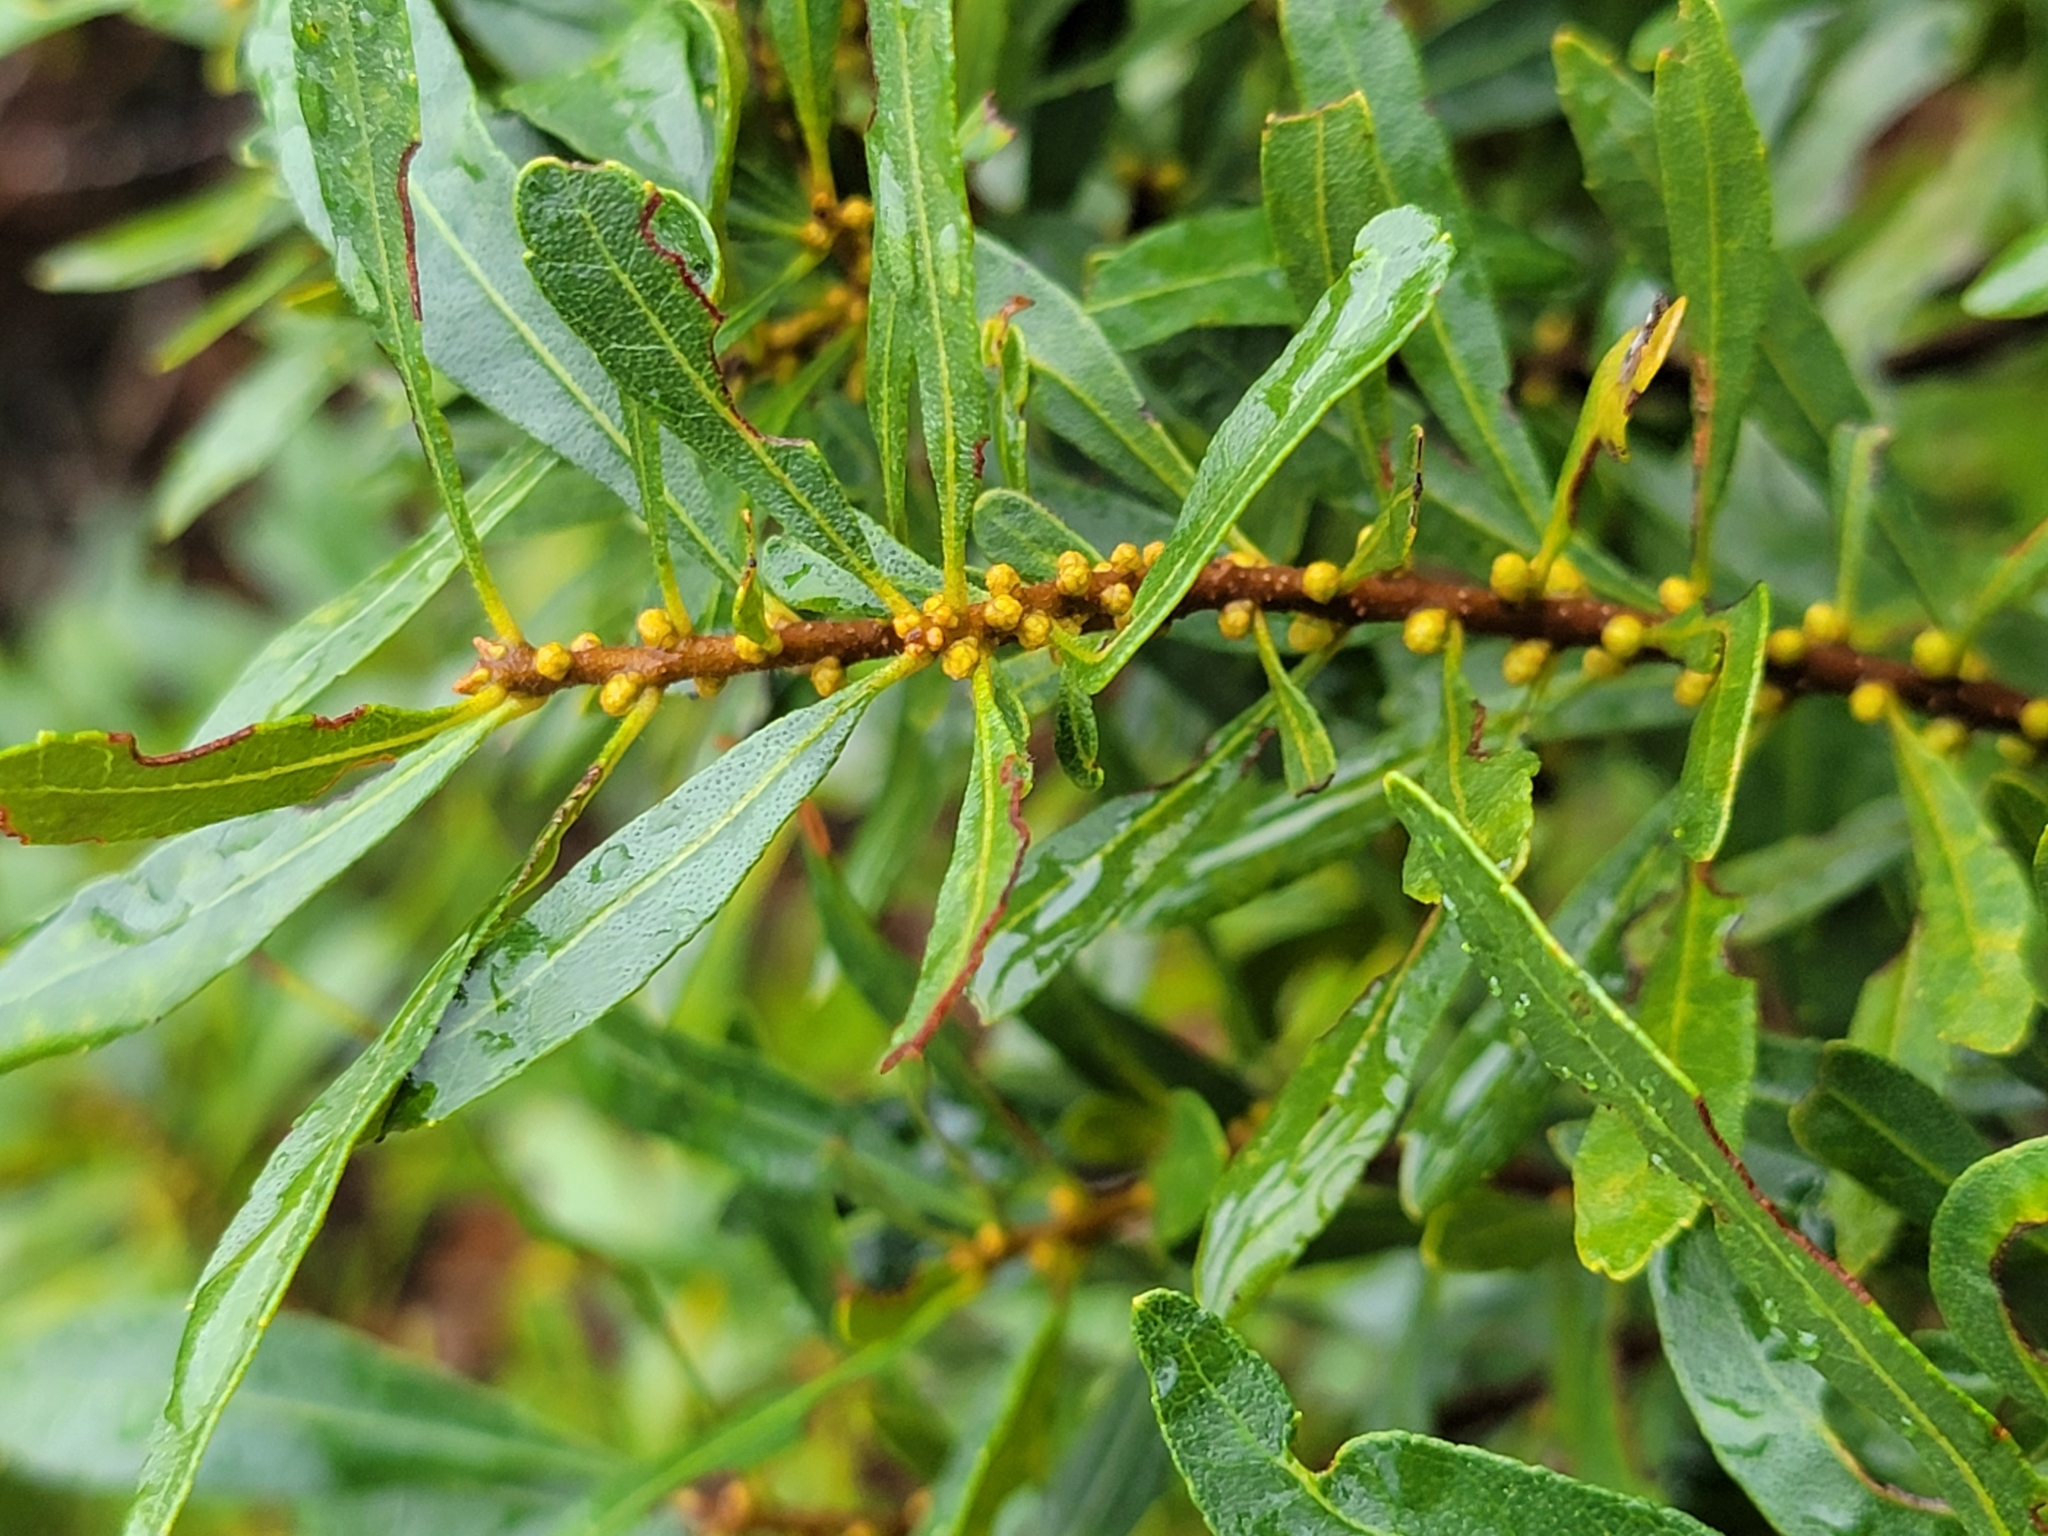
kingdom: Plantae
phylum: Tracheophyta
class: Magnoliopsida
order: Fagales
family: Myricaceae
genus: Morella
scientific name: Morella cerifera
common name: Wax myrtle
